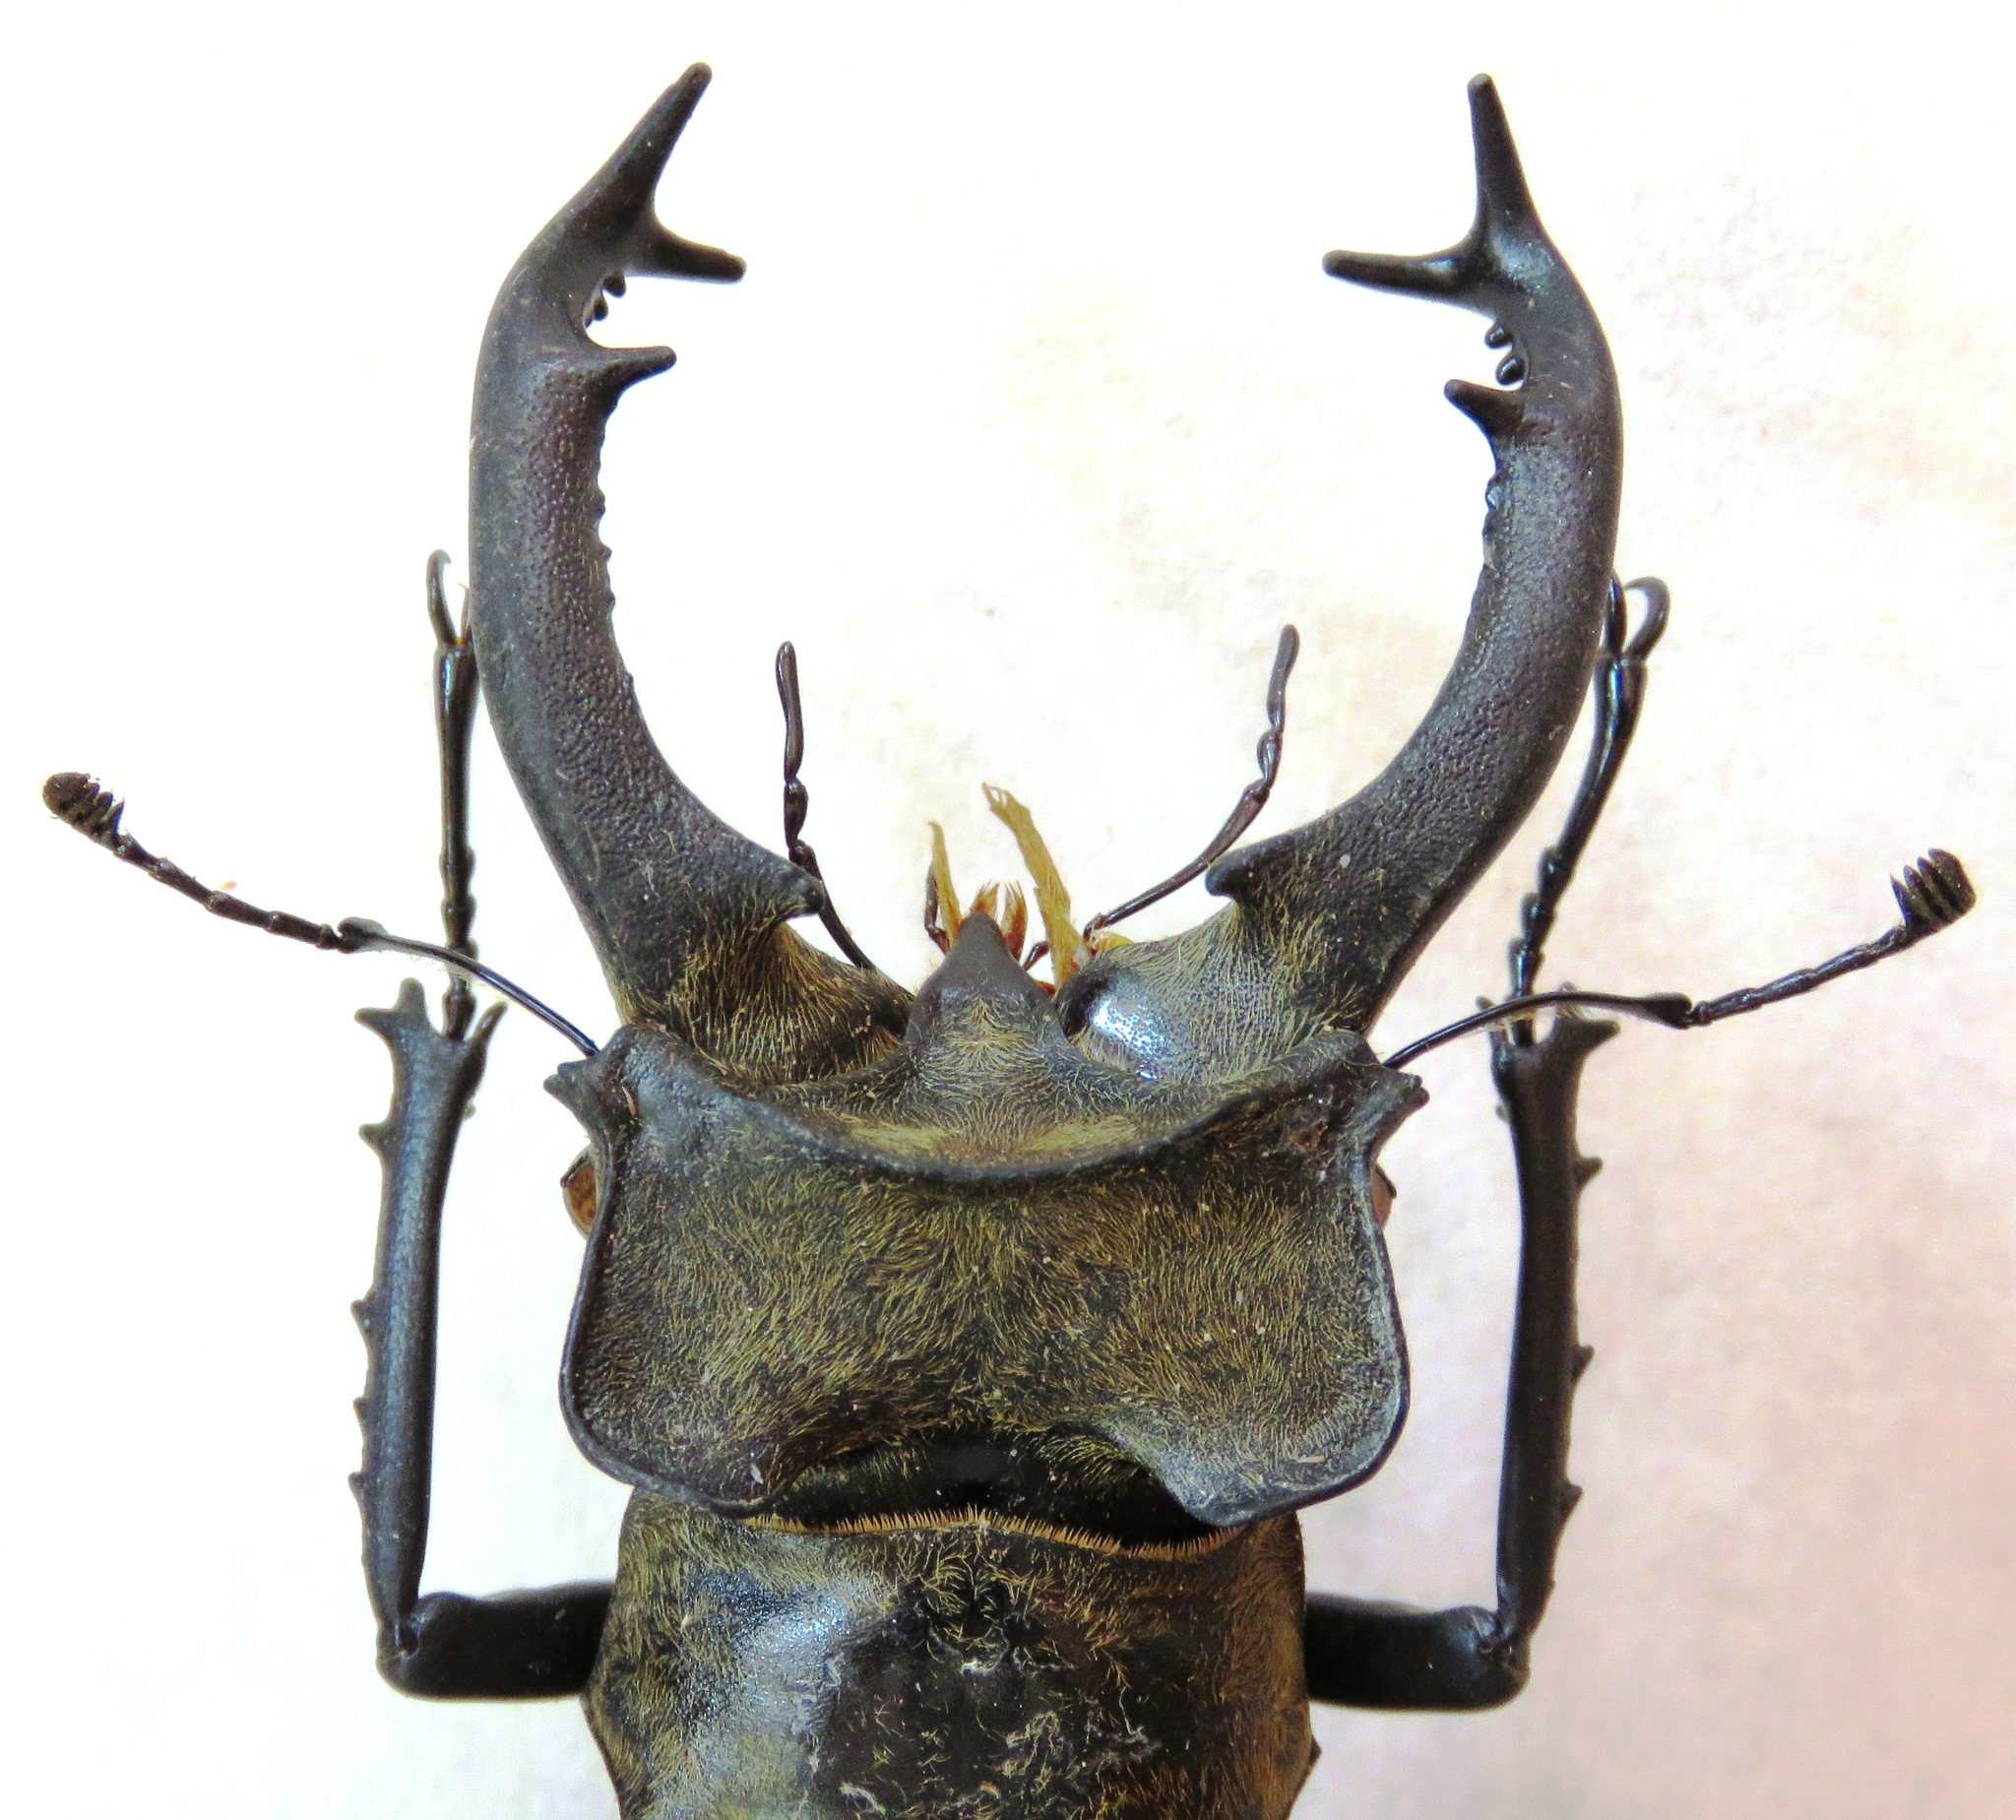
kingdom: Animalia
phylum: Arthropoda
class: Insecta
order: Coleoptera
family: Lucanidae
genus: Lucanus
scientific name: Lucanus sericeus
